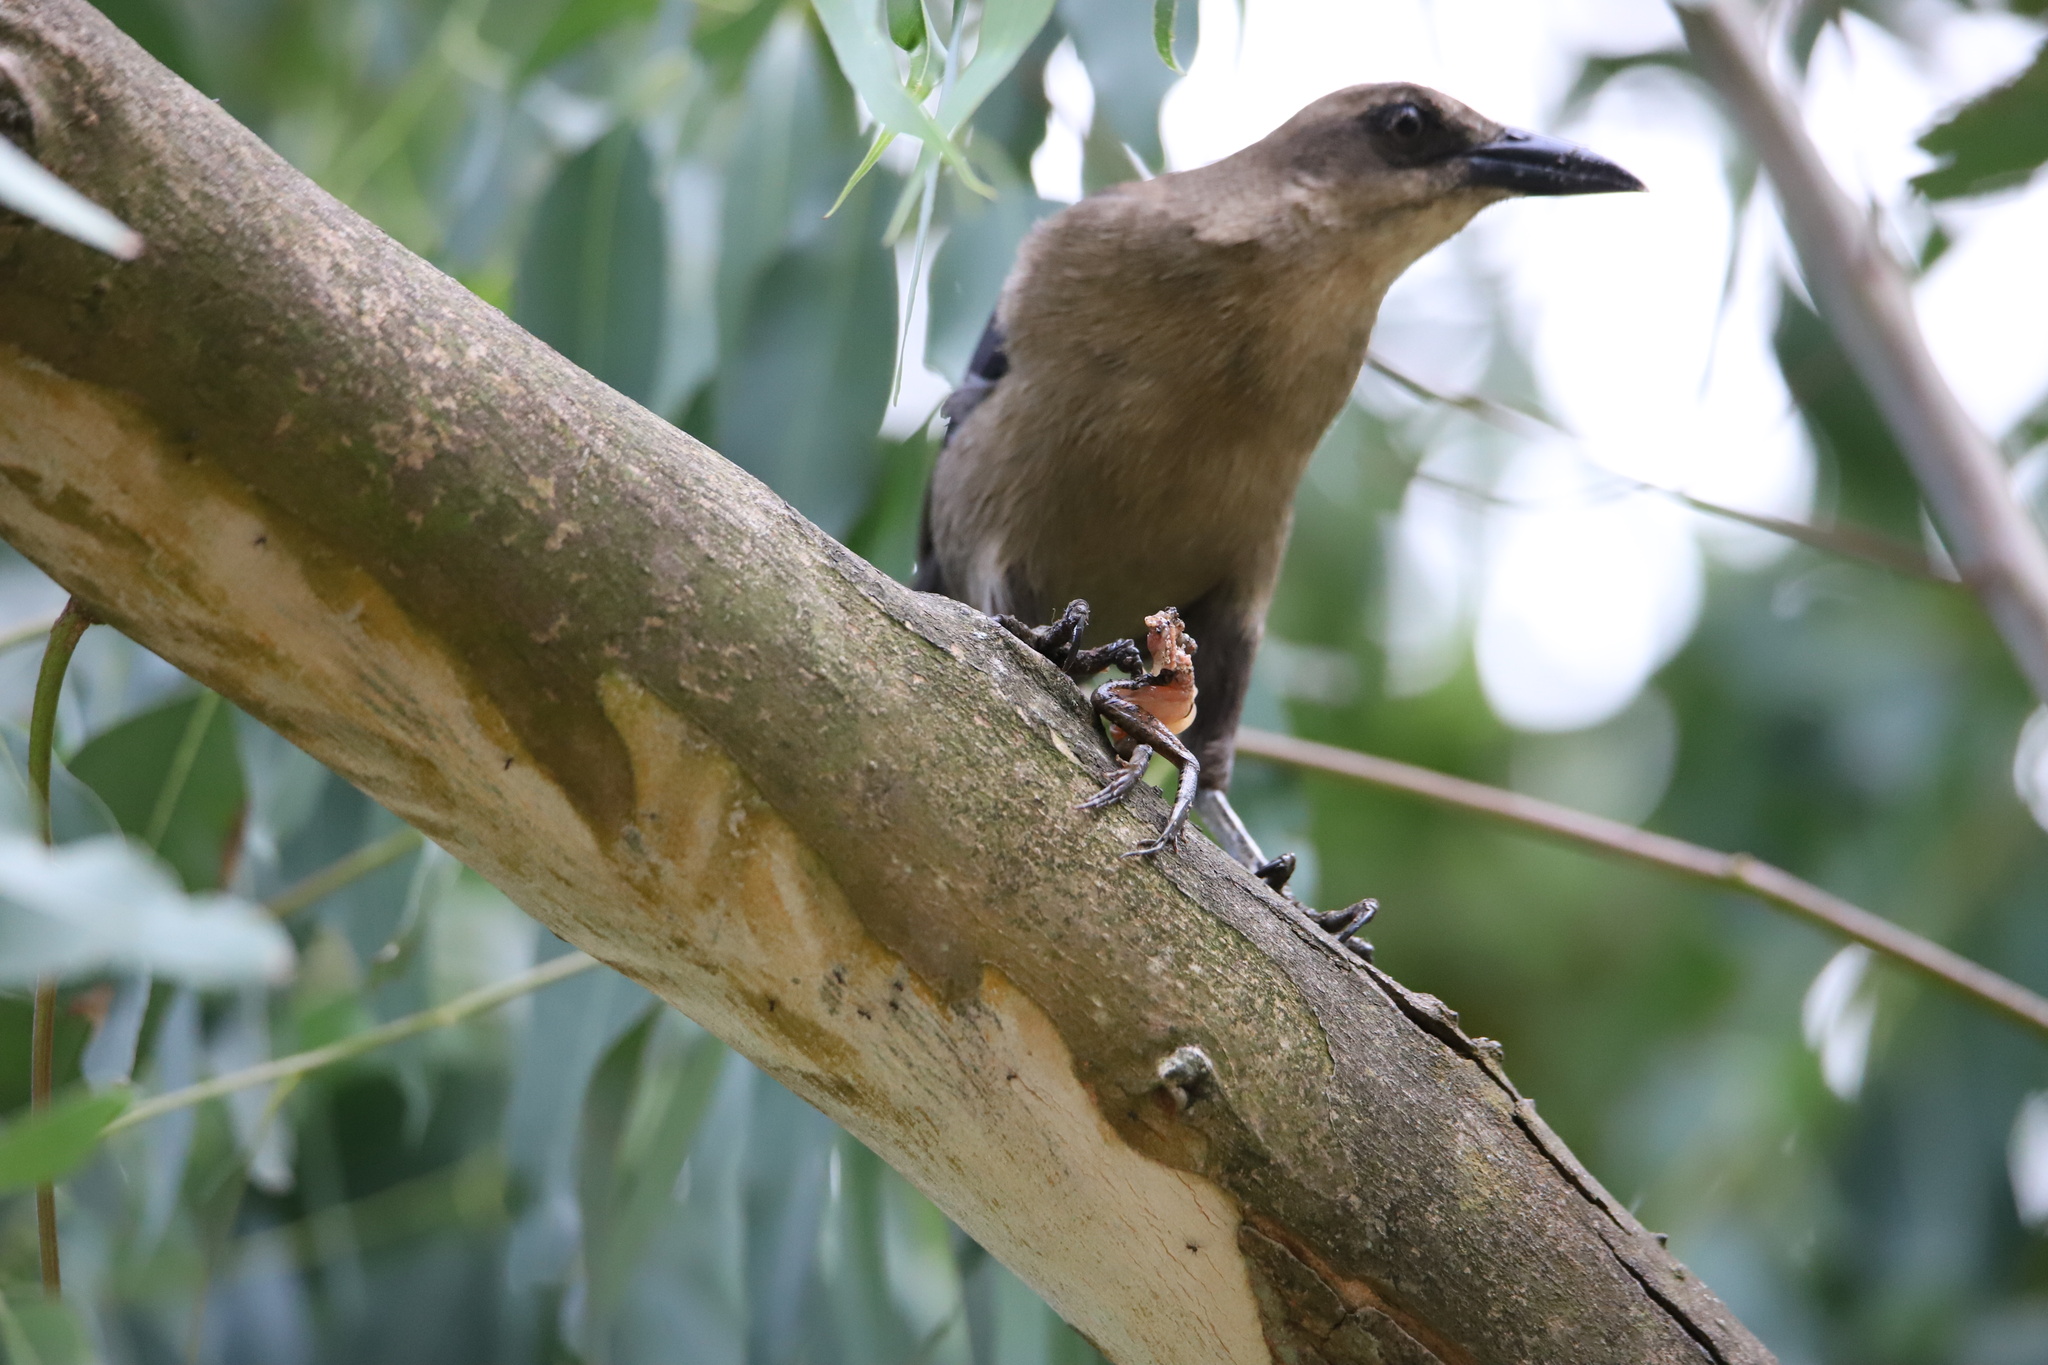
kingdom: Animalia
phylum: Chordata
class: Aves
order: Passeriformes
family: Icteridae
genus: Quiscalus
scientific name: Quiscalus mexicanus
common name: Great-tailed grackle
